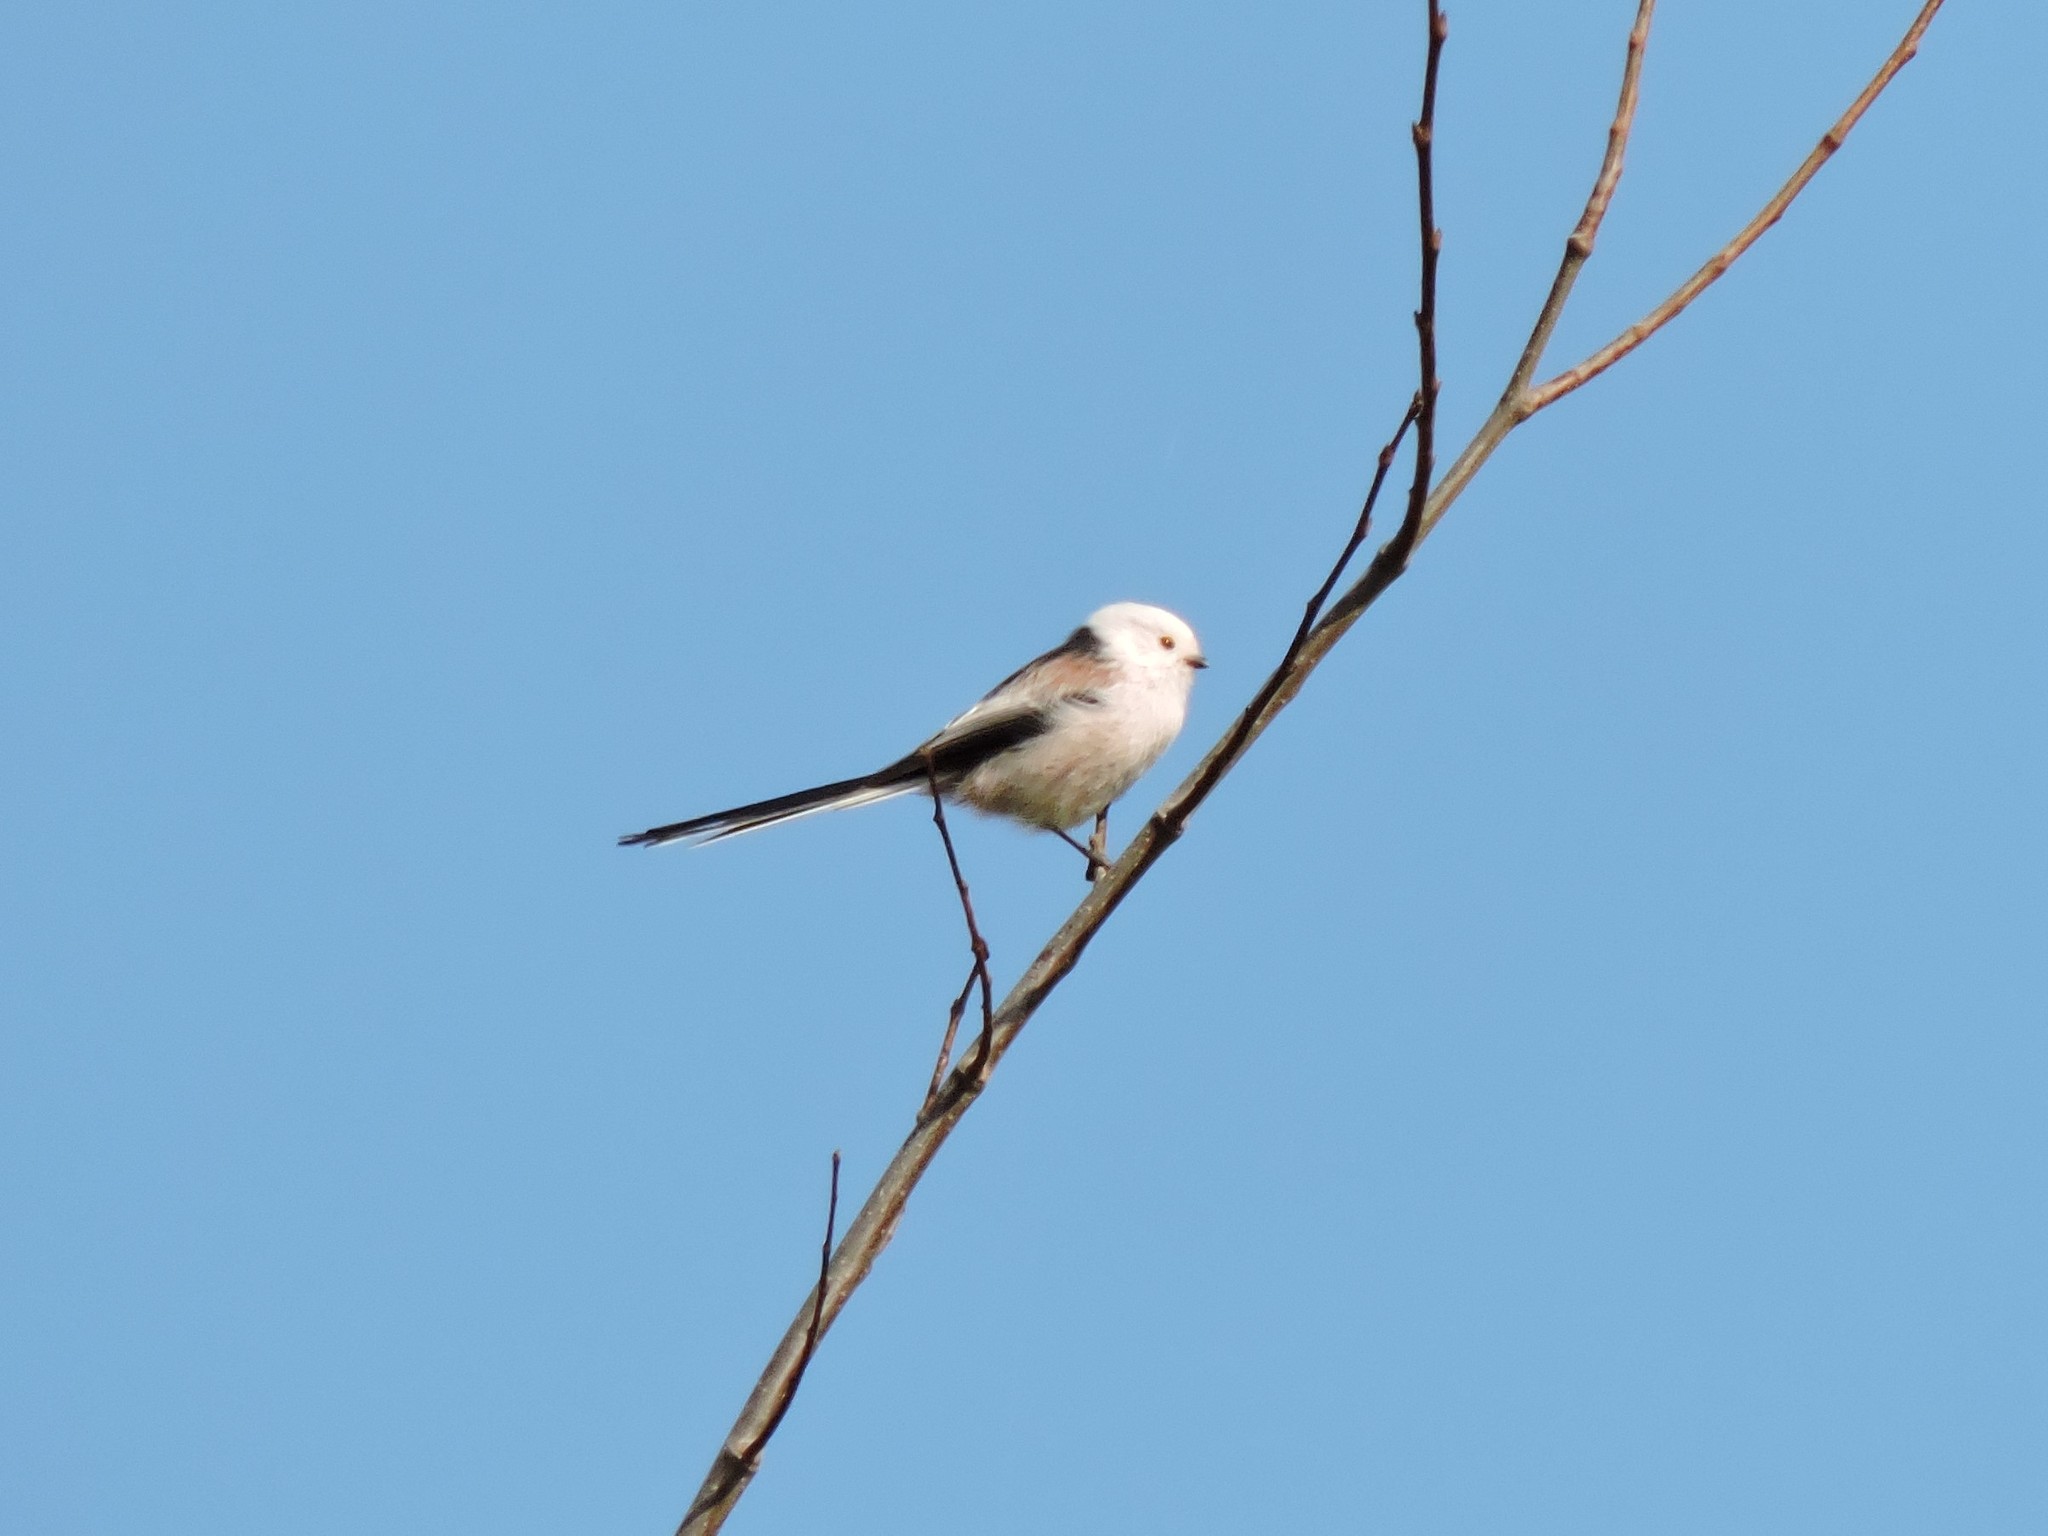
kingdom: Animalia
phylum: Chordata
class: Aves
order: Passeriformes
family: Aegithalidae
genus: Aegithalos
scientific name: Aegithalos caudatus
